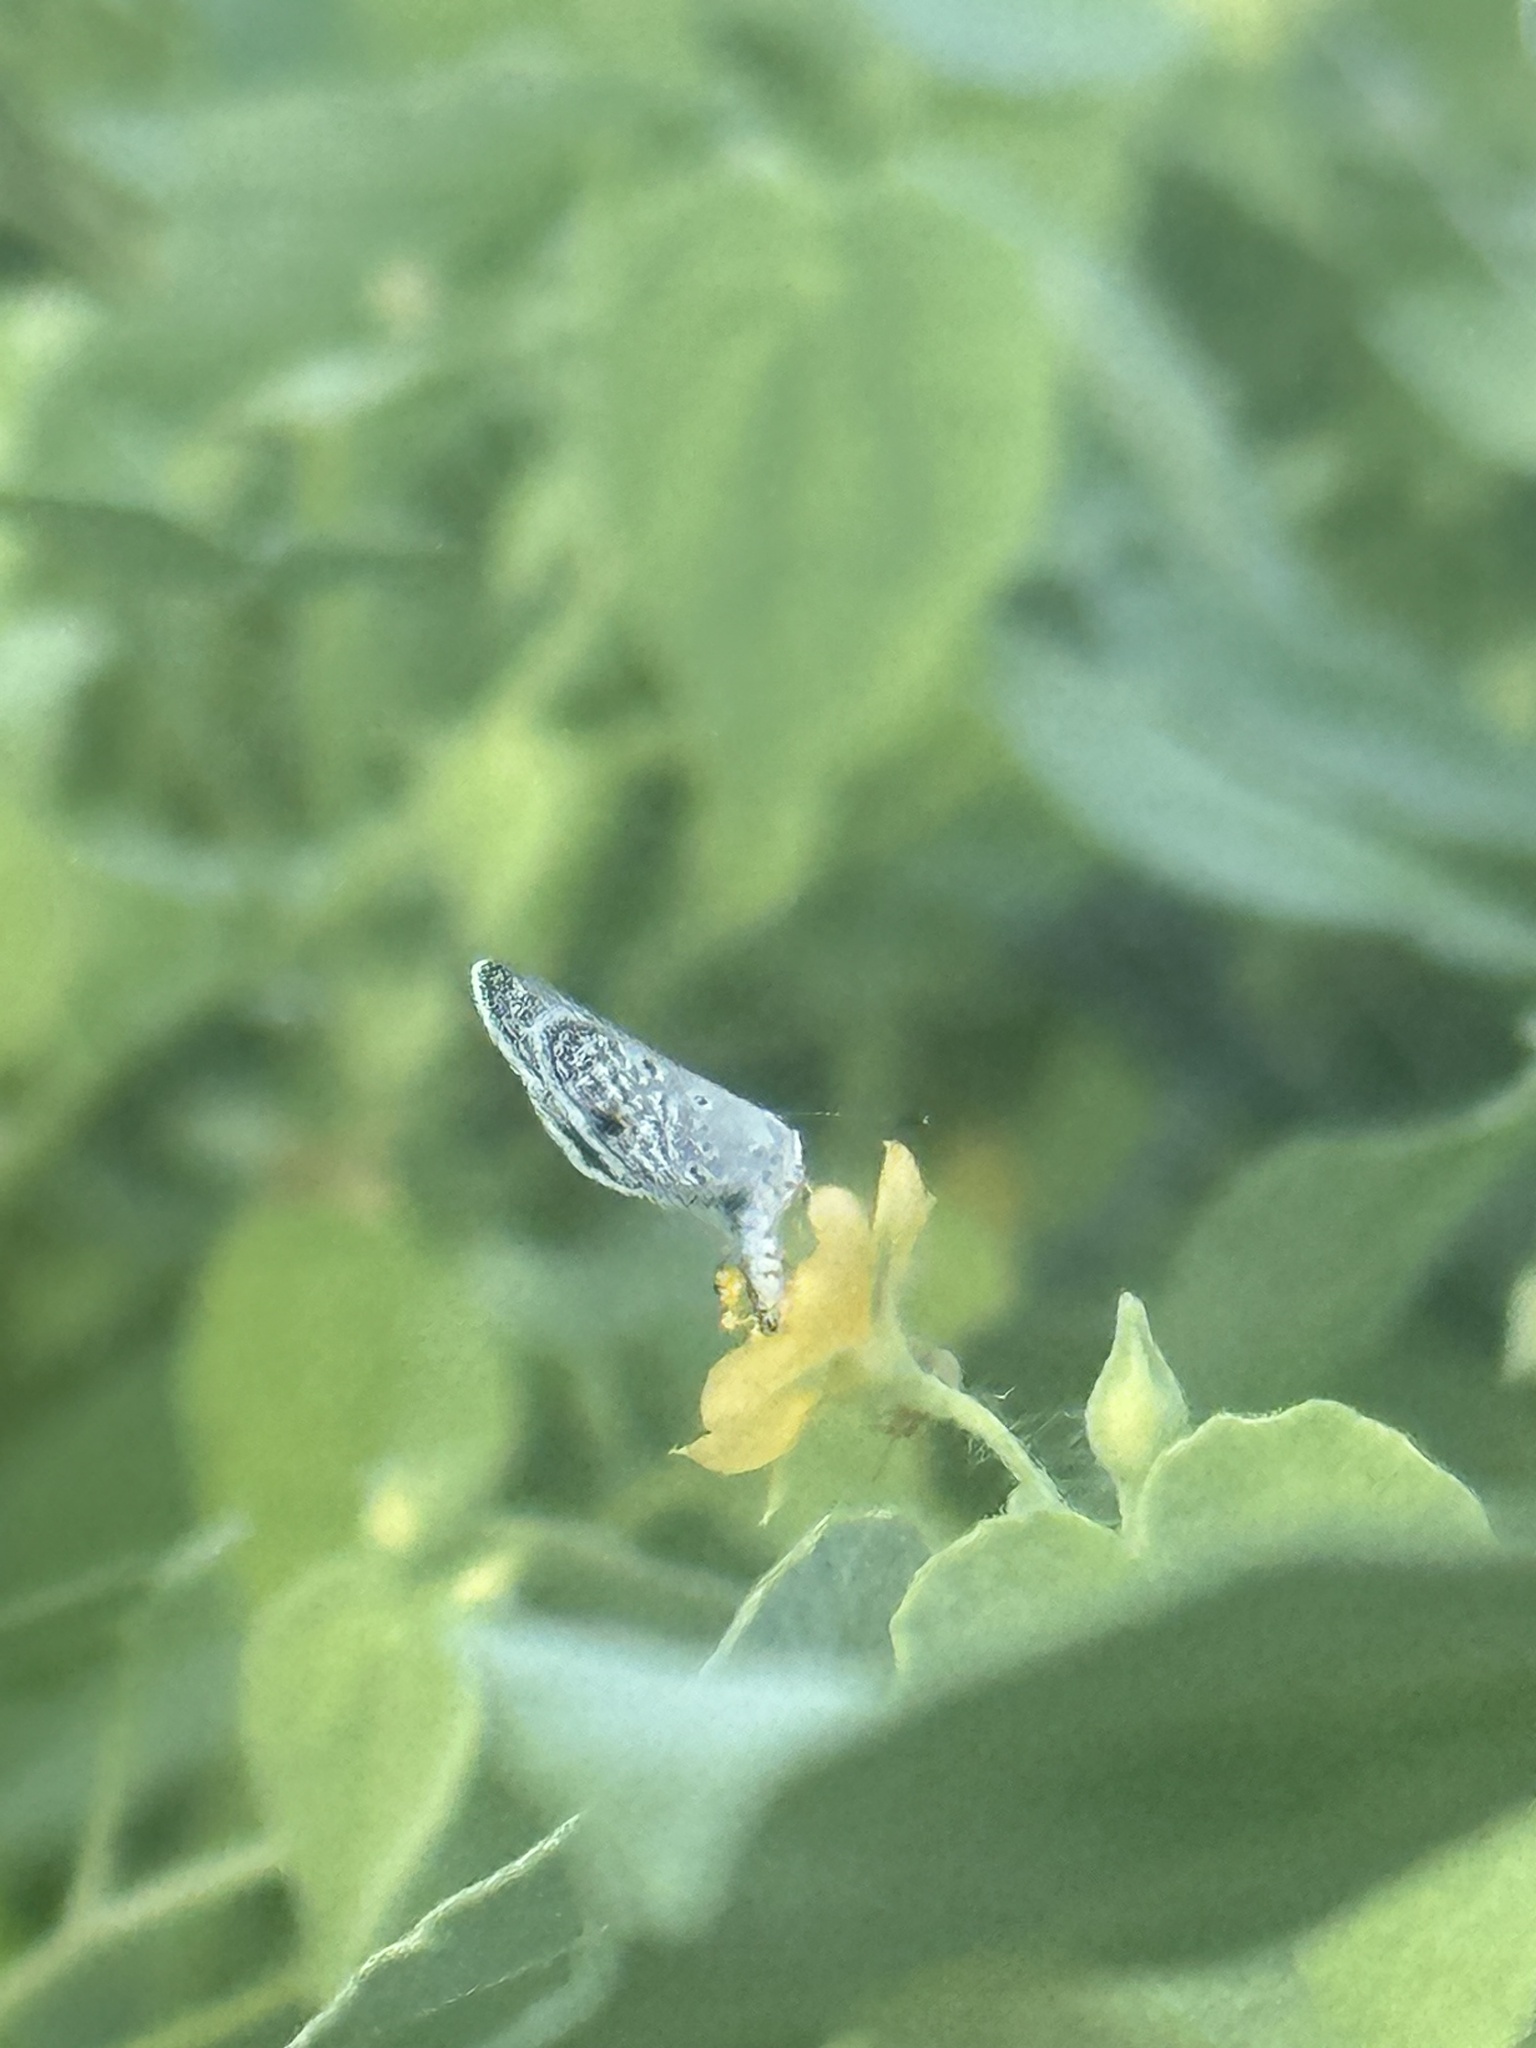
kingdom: Animalia
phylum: Arthropoda
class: Insecta
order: Lepidoptera
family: Lycaenidae
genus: Hemiargus
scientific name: Hemiargus hanno
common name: Common blue
